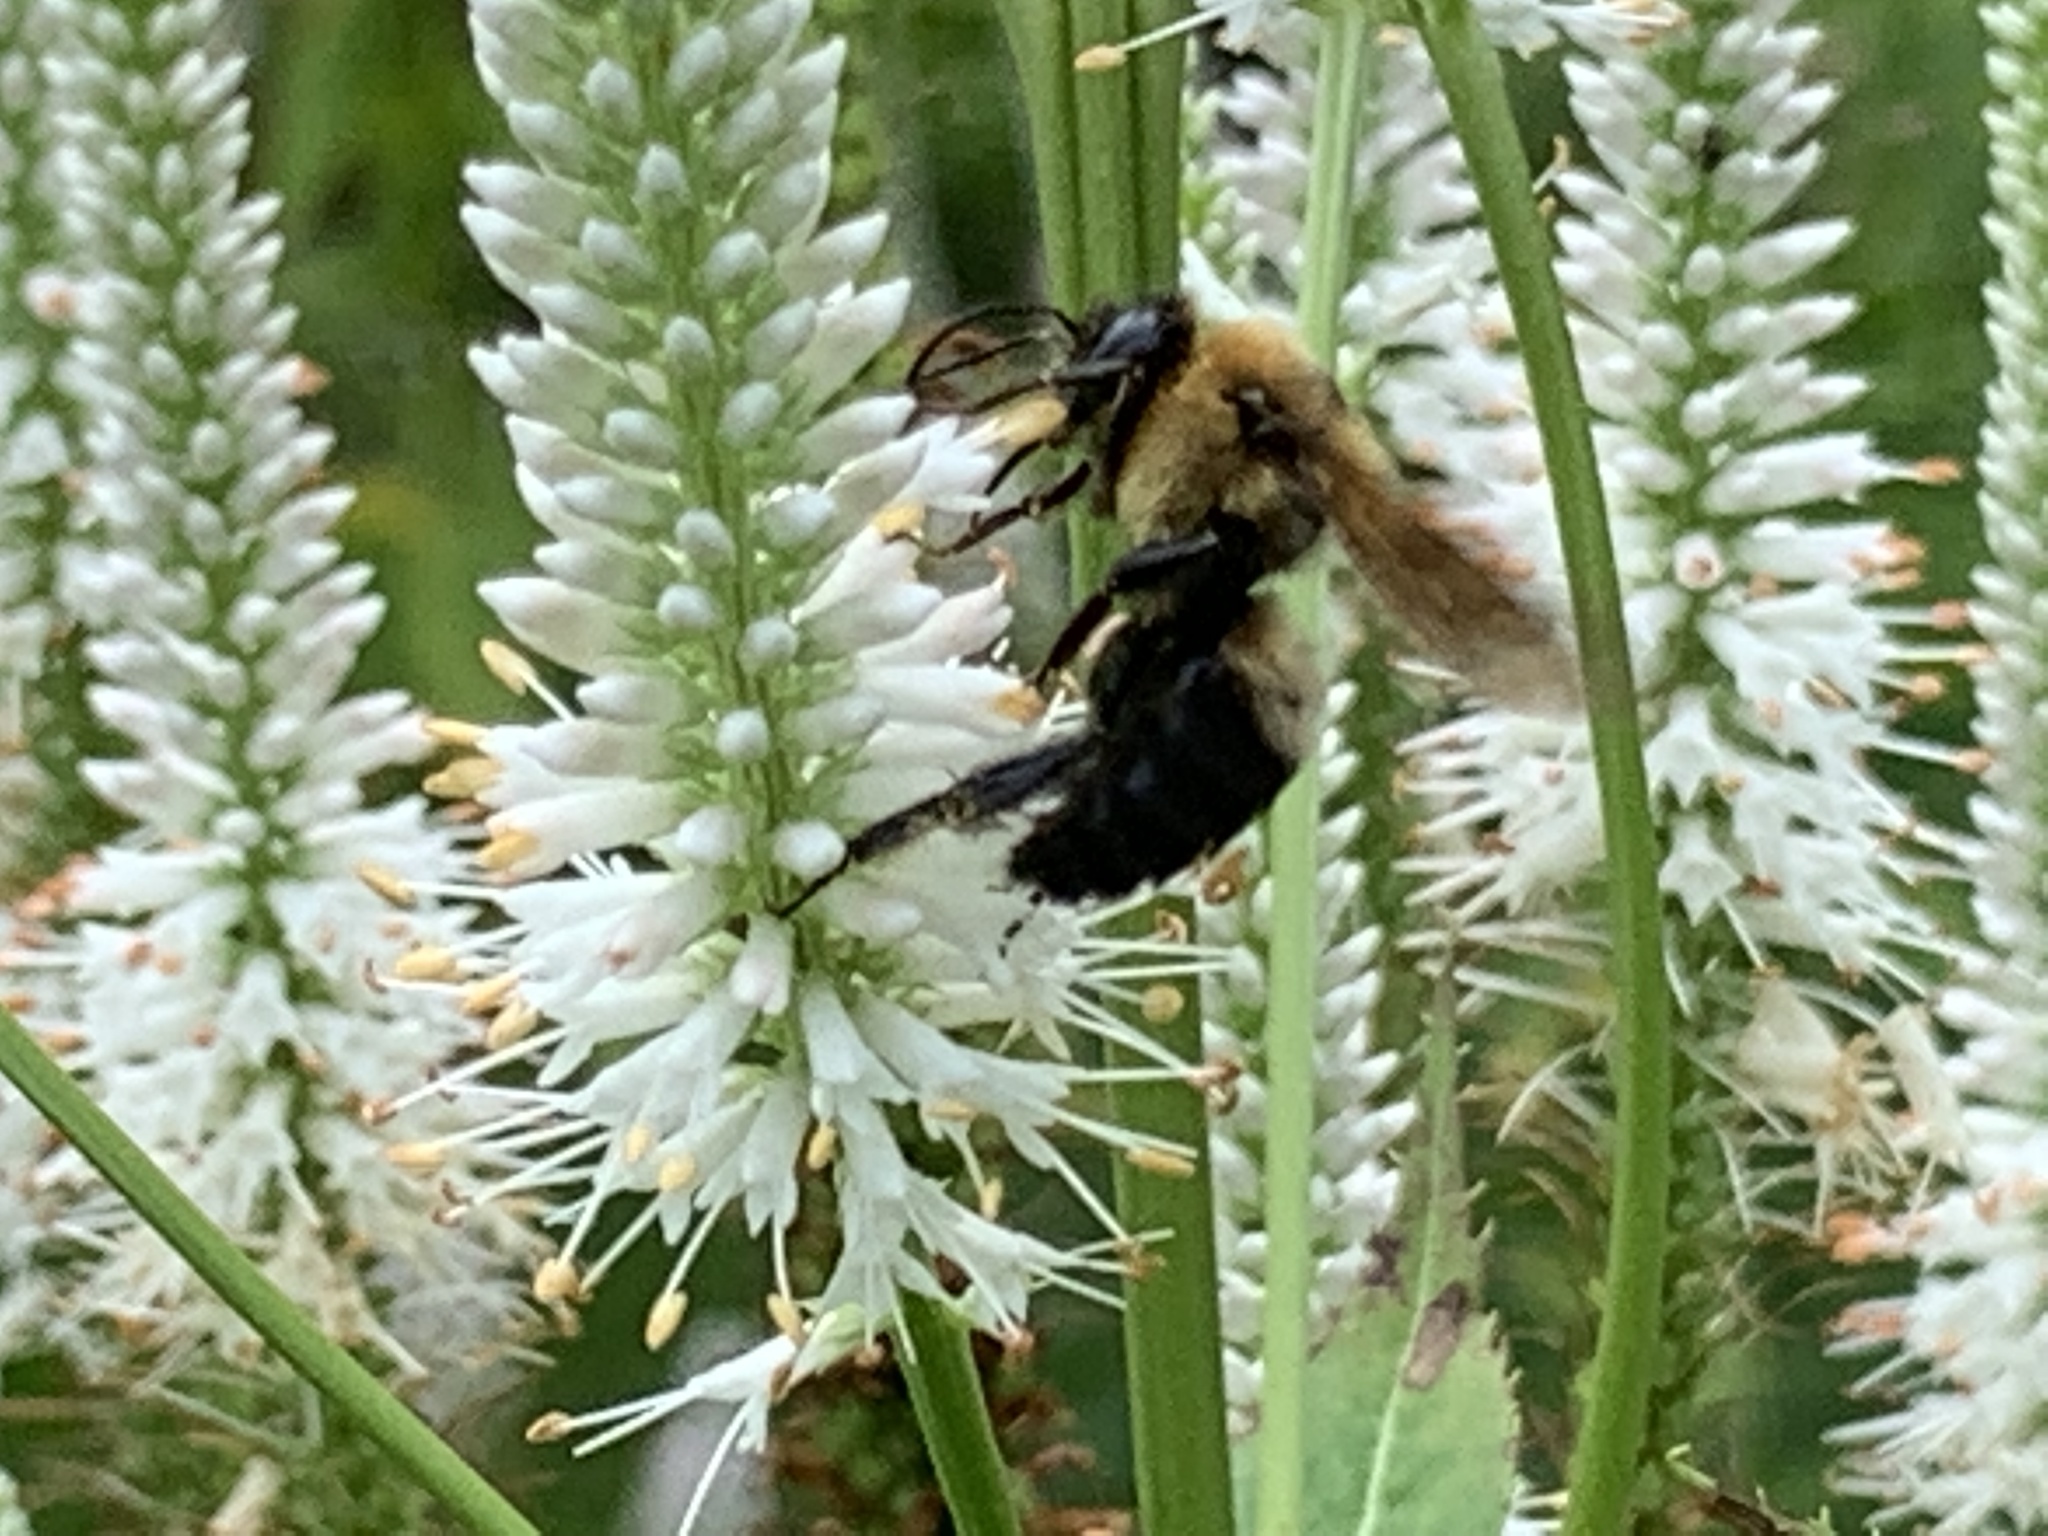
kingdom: Animalia
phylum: Arthropoda
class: Insecta
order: Hymenoptera
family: Apidae
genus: Bombus
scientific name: Bombus griseocollis
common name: Brown-belted bumble bee
